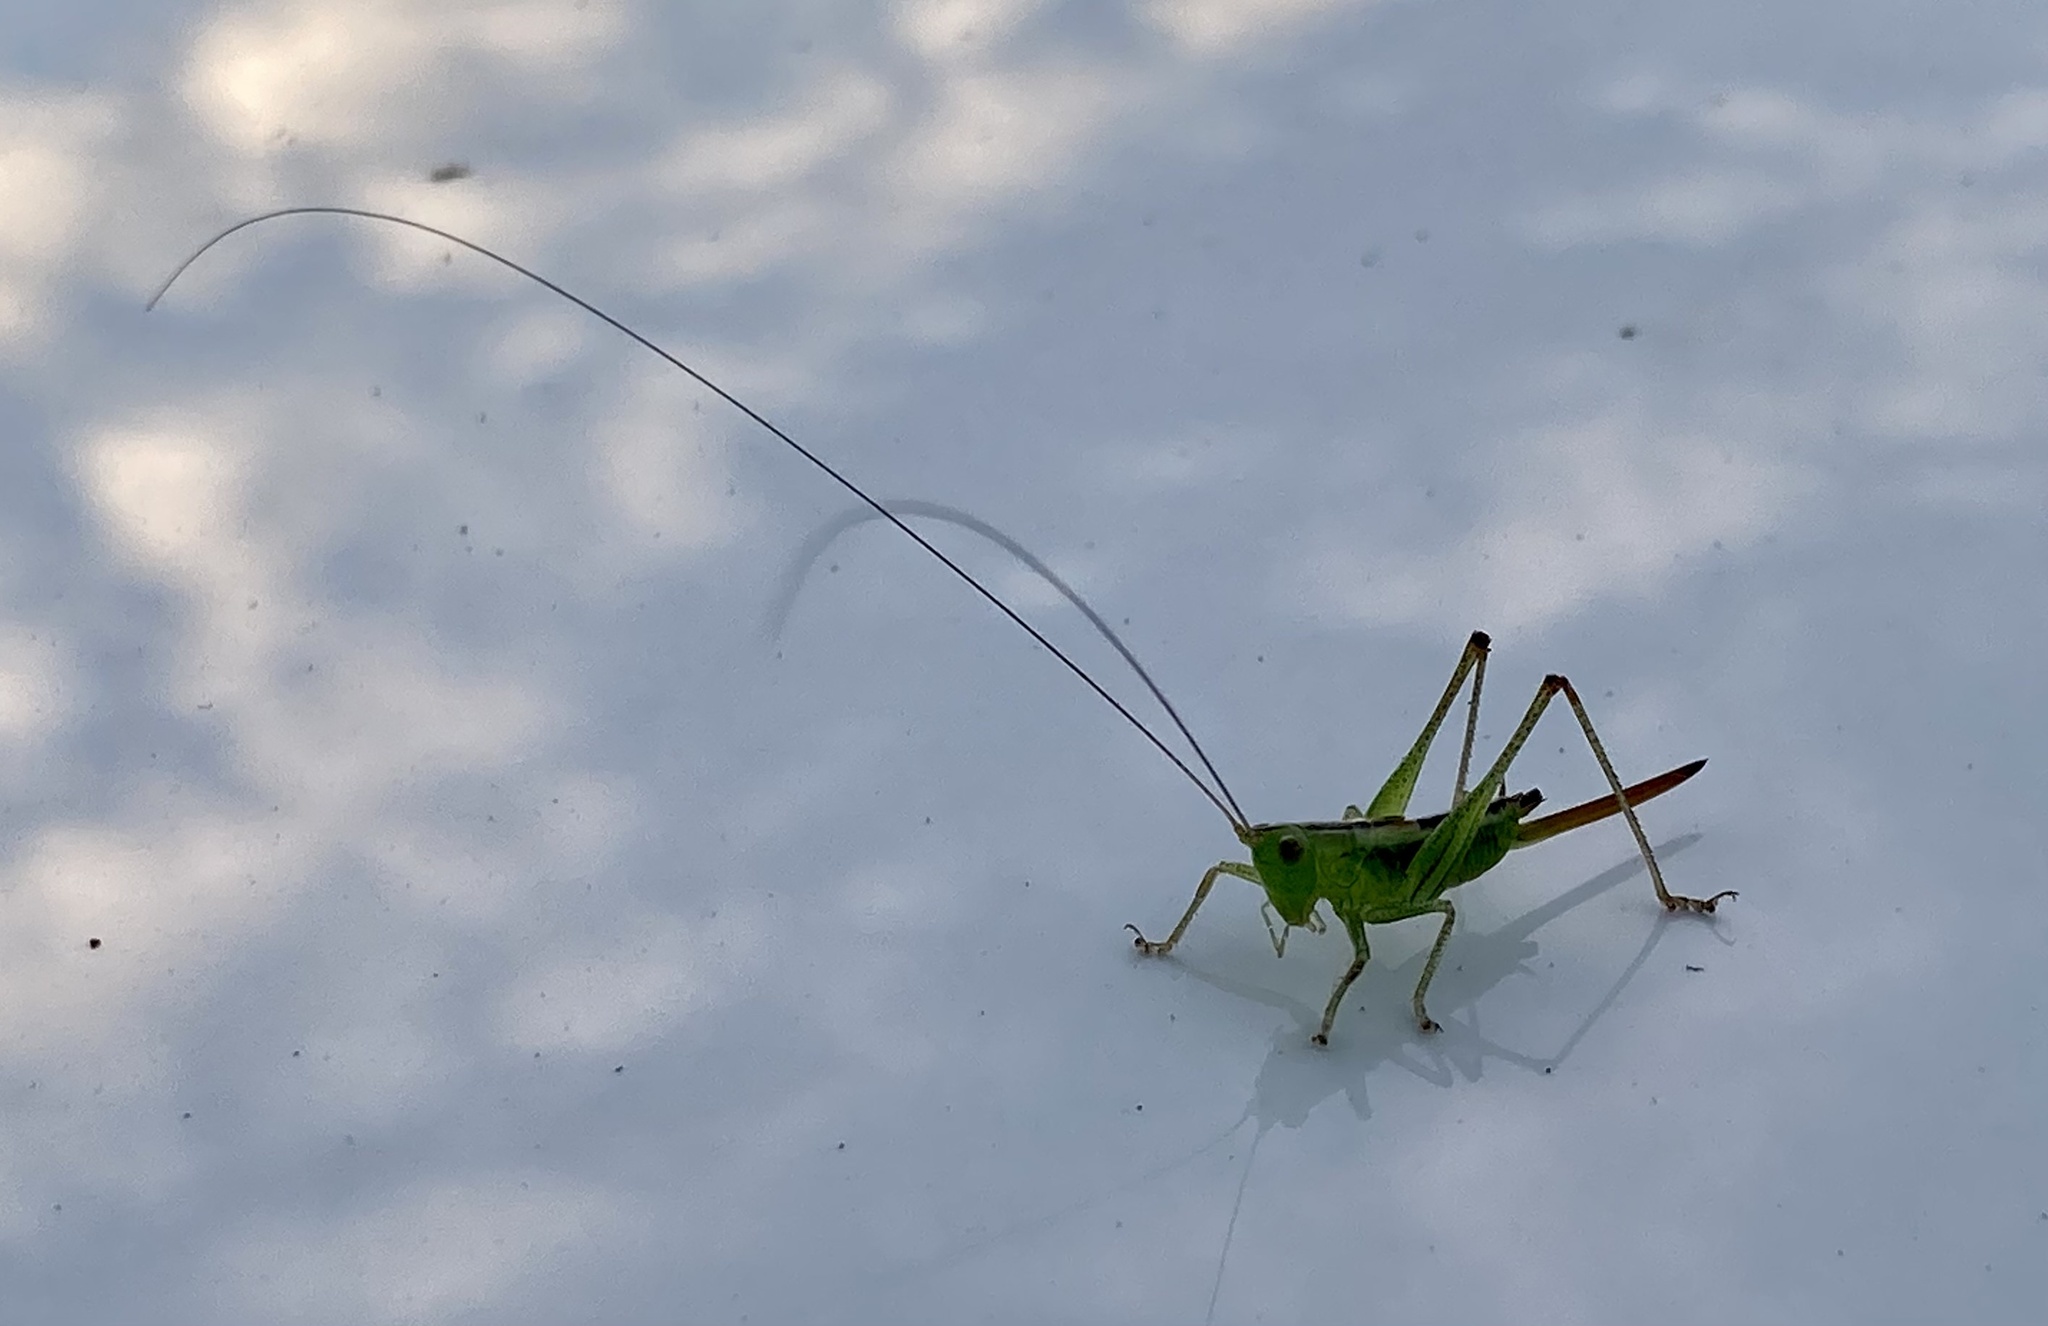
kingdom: Animalia
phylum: Arthropoda
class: Insecta
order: Orthoptera
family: Tettigoniidae
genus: Conocephalus
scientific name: Conocephalus brevipennis
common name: Short-winged meadow katydid
